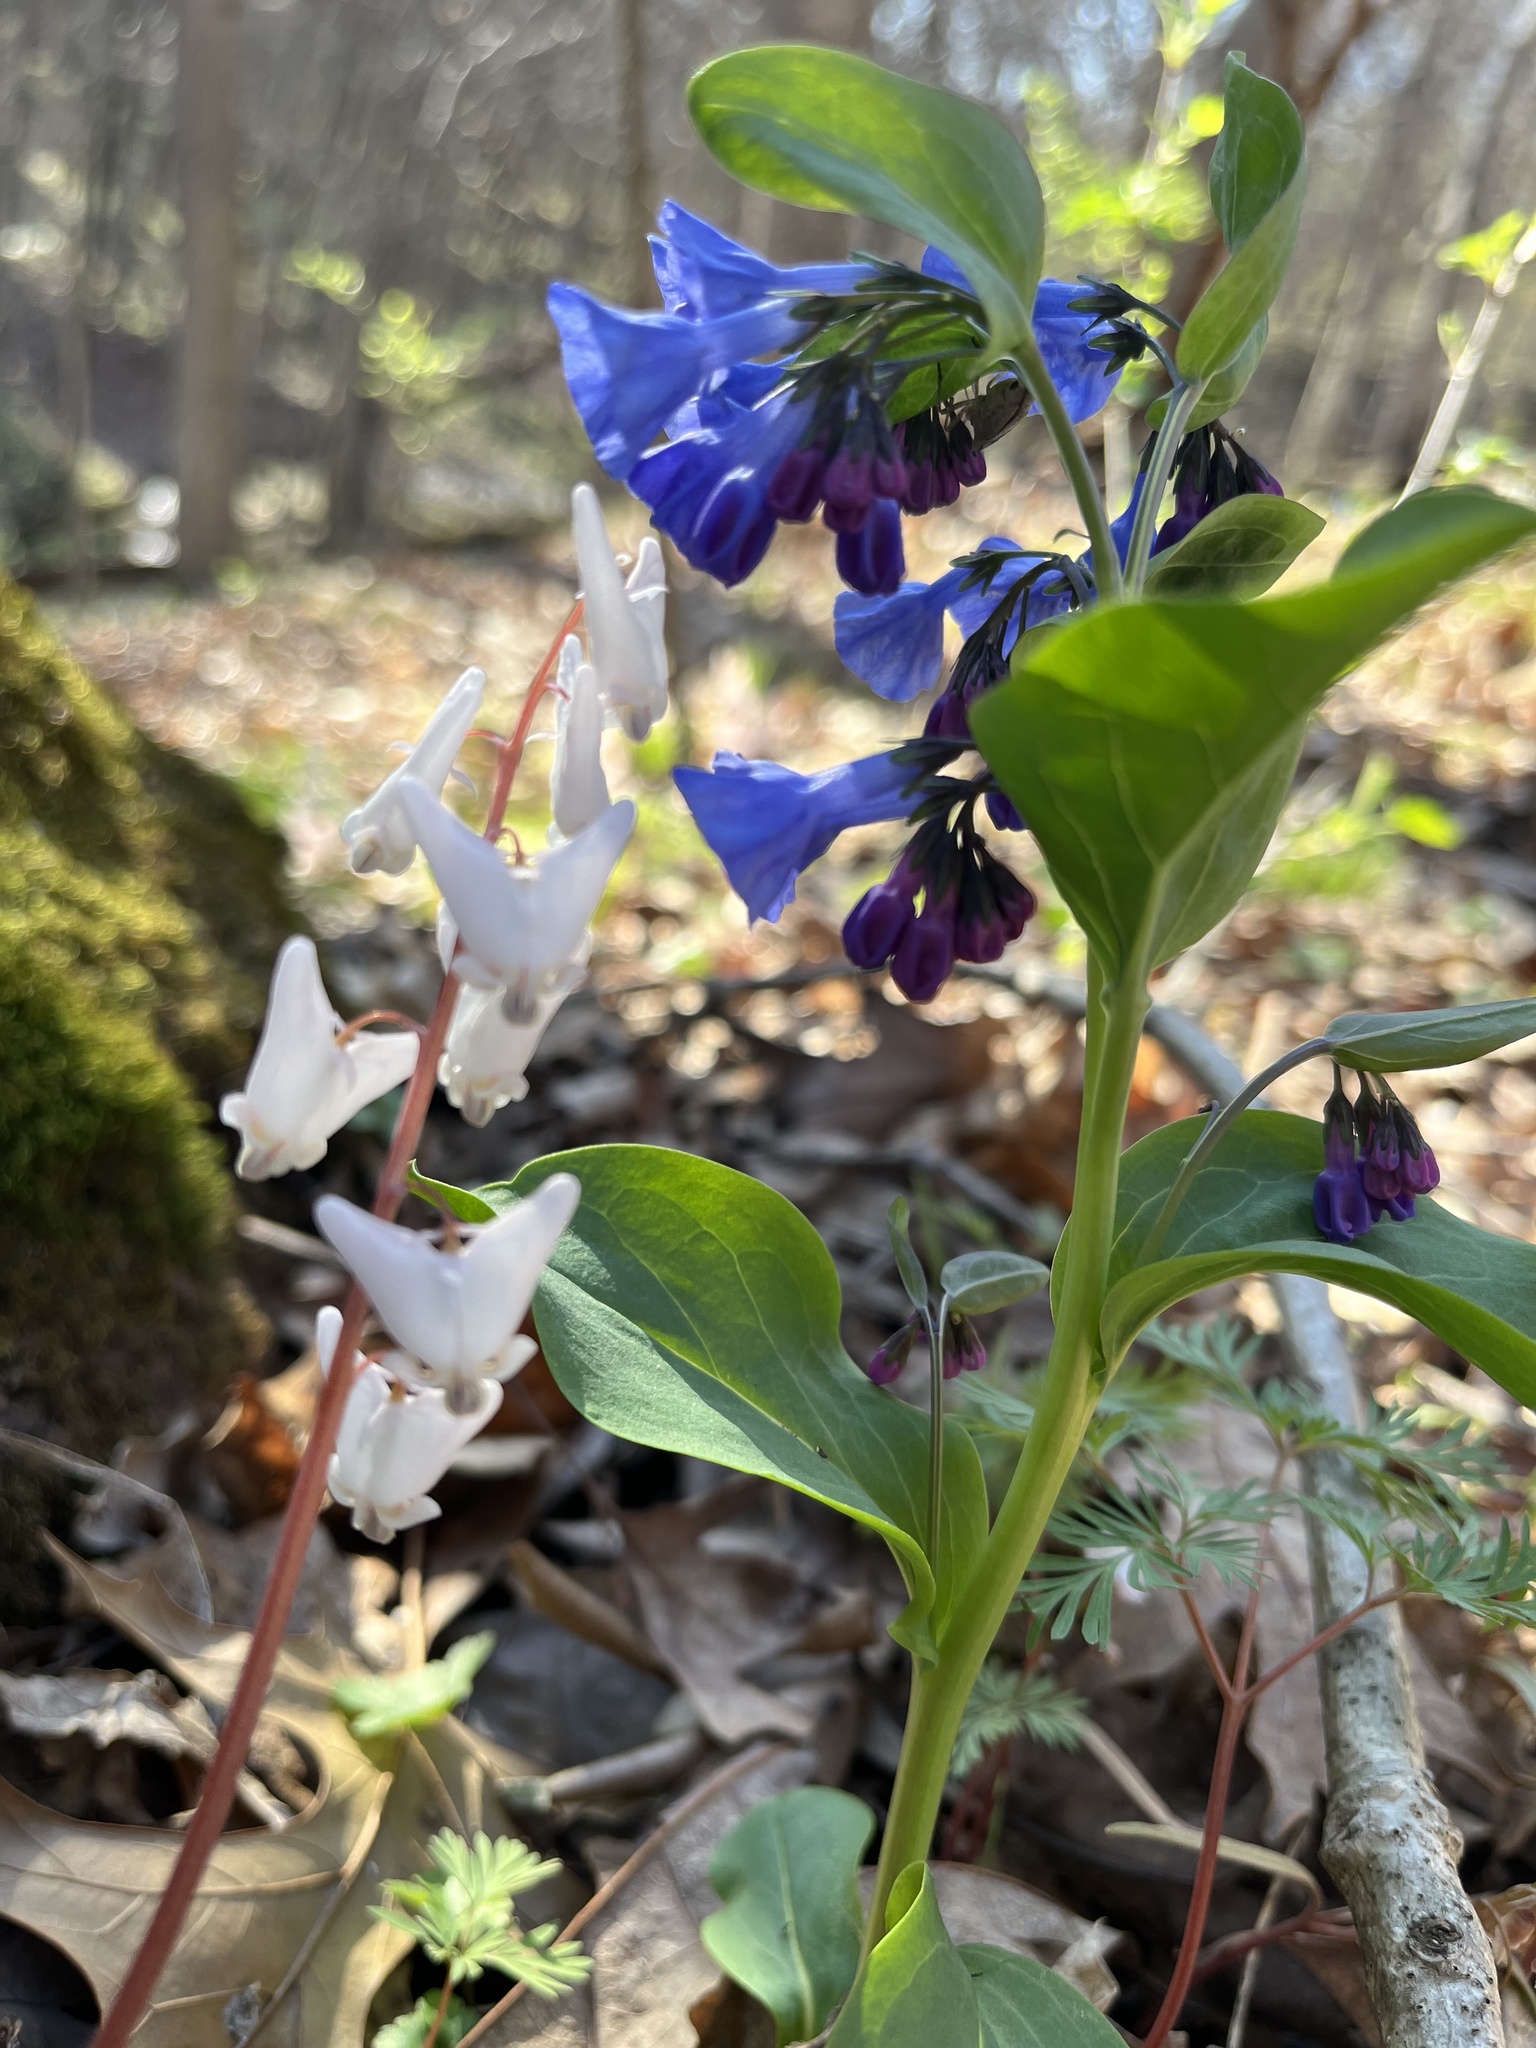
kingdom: Plantae
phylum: Tracheophyta
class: Magnoliopsida
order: Boraginales
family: Boraginaceae
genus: Mertensia
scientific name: Mertensia virginica
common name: Virginia bluebells
